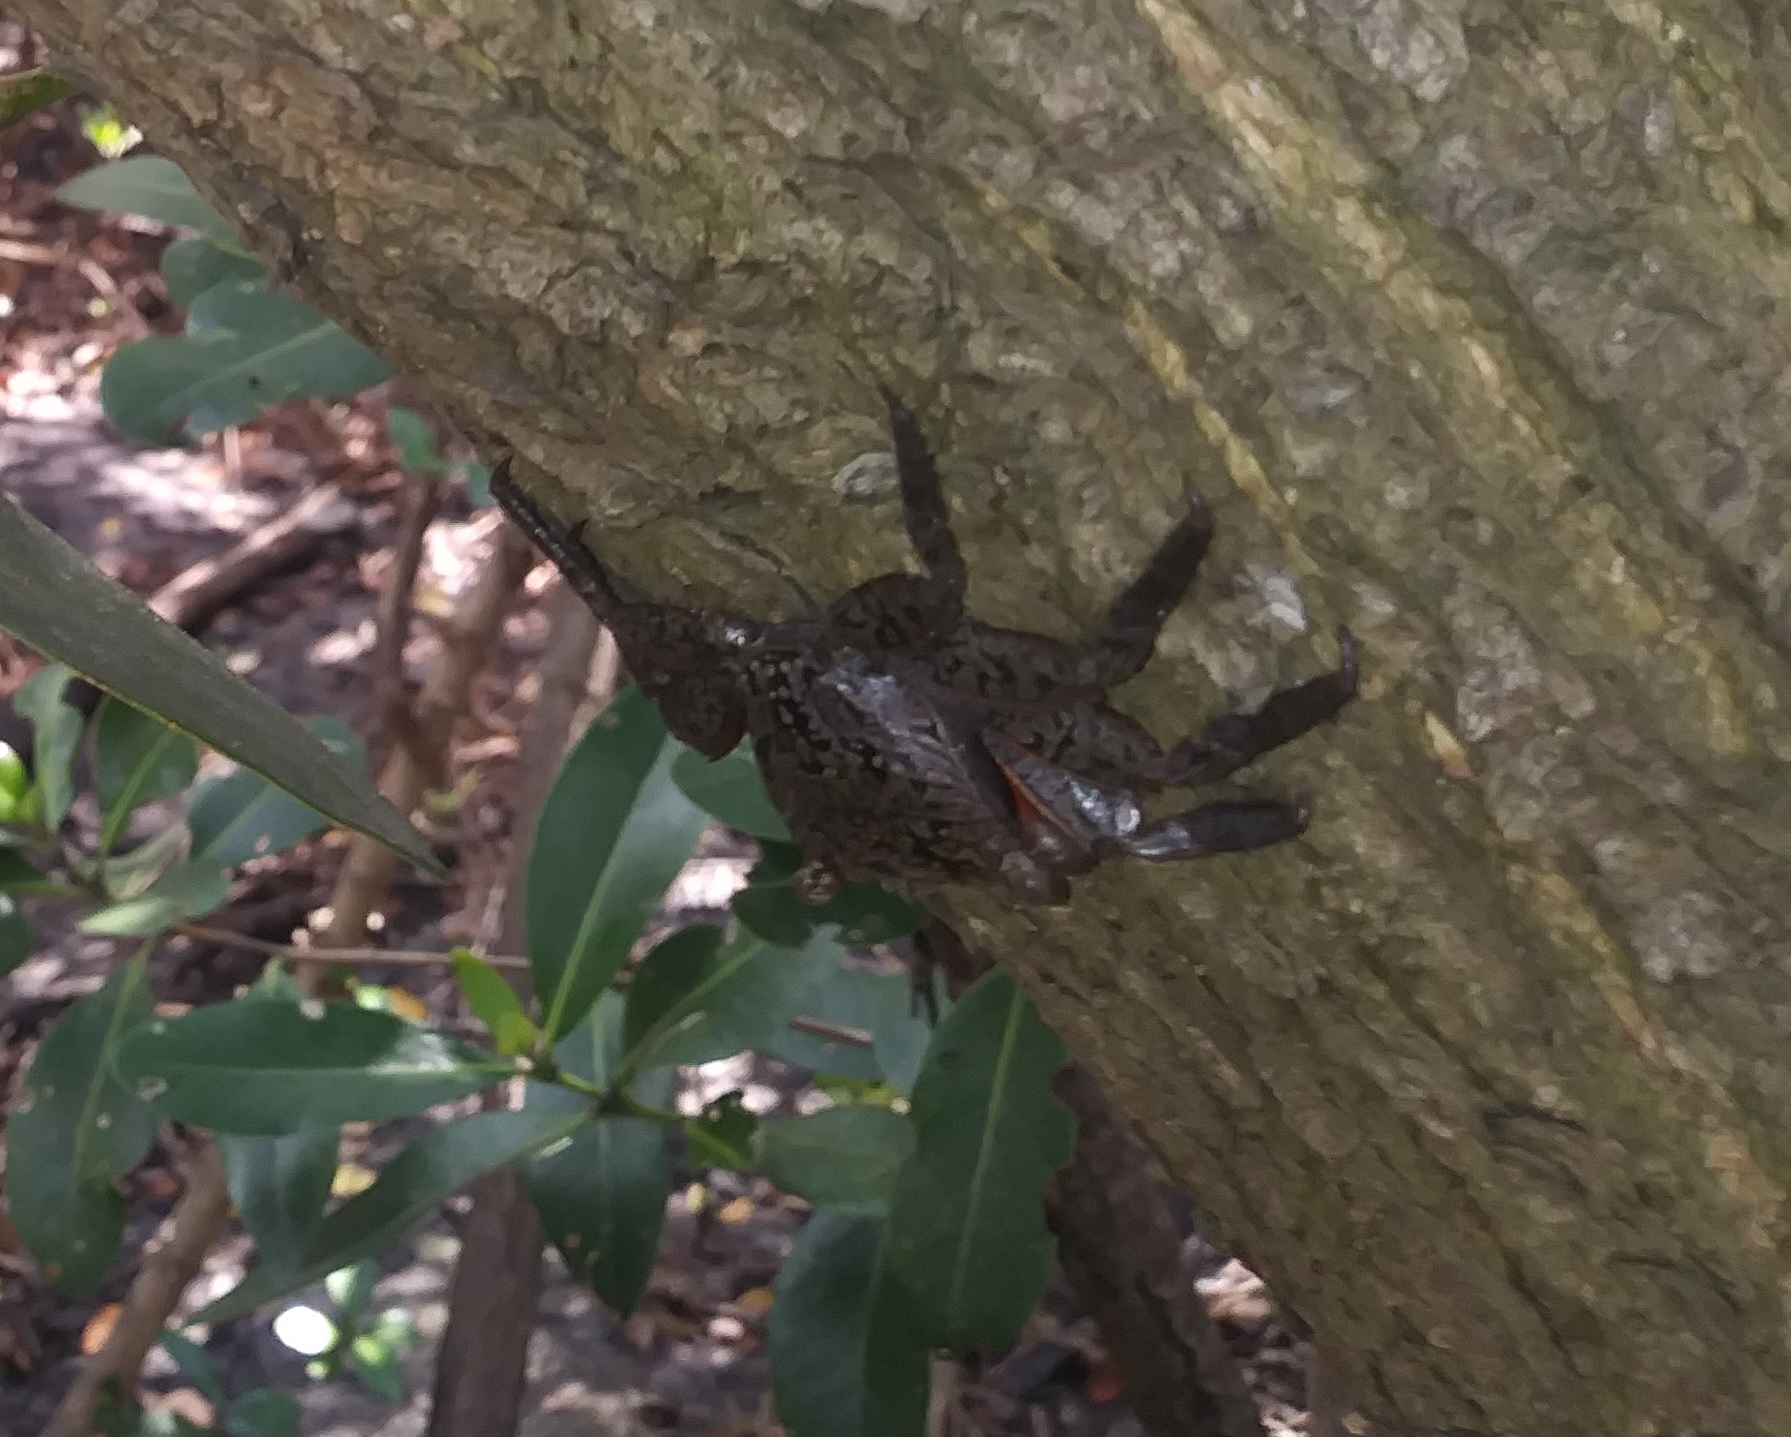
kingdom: Animalia
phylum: Arthropoda
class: Malacostraca
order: Decapoda
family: Sesarmidae
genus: Aratus
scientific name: Aratus pisonii
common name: Mangrove crab
